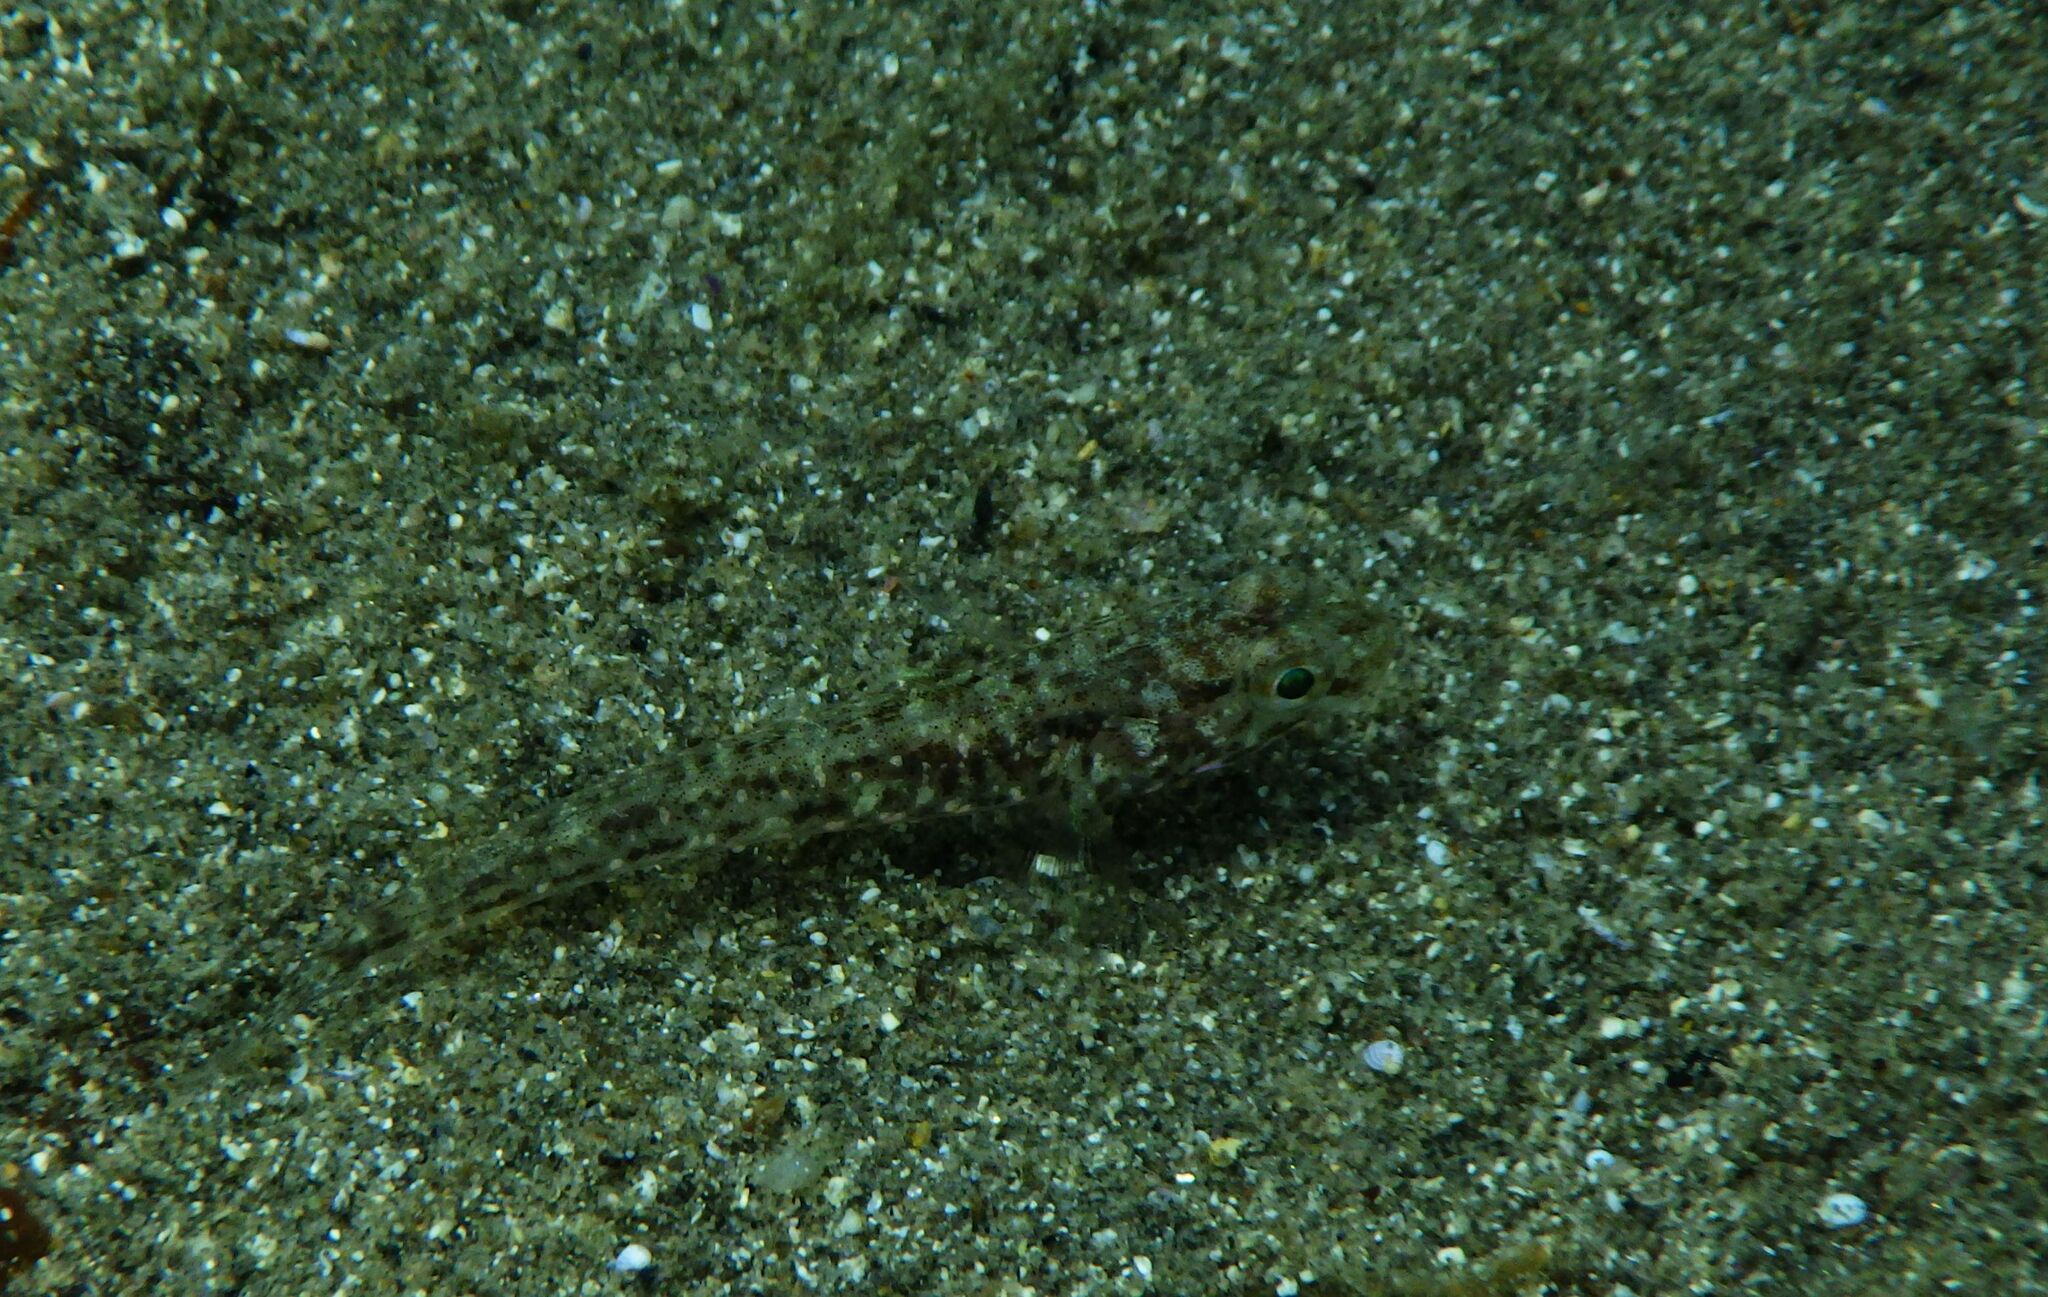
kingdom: Animalia
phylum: Chordata
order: Perciformes
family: Gobiidae
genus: Gobius
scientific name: Gobius cruentatus
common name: Red-mouthed goby
